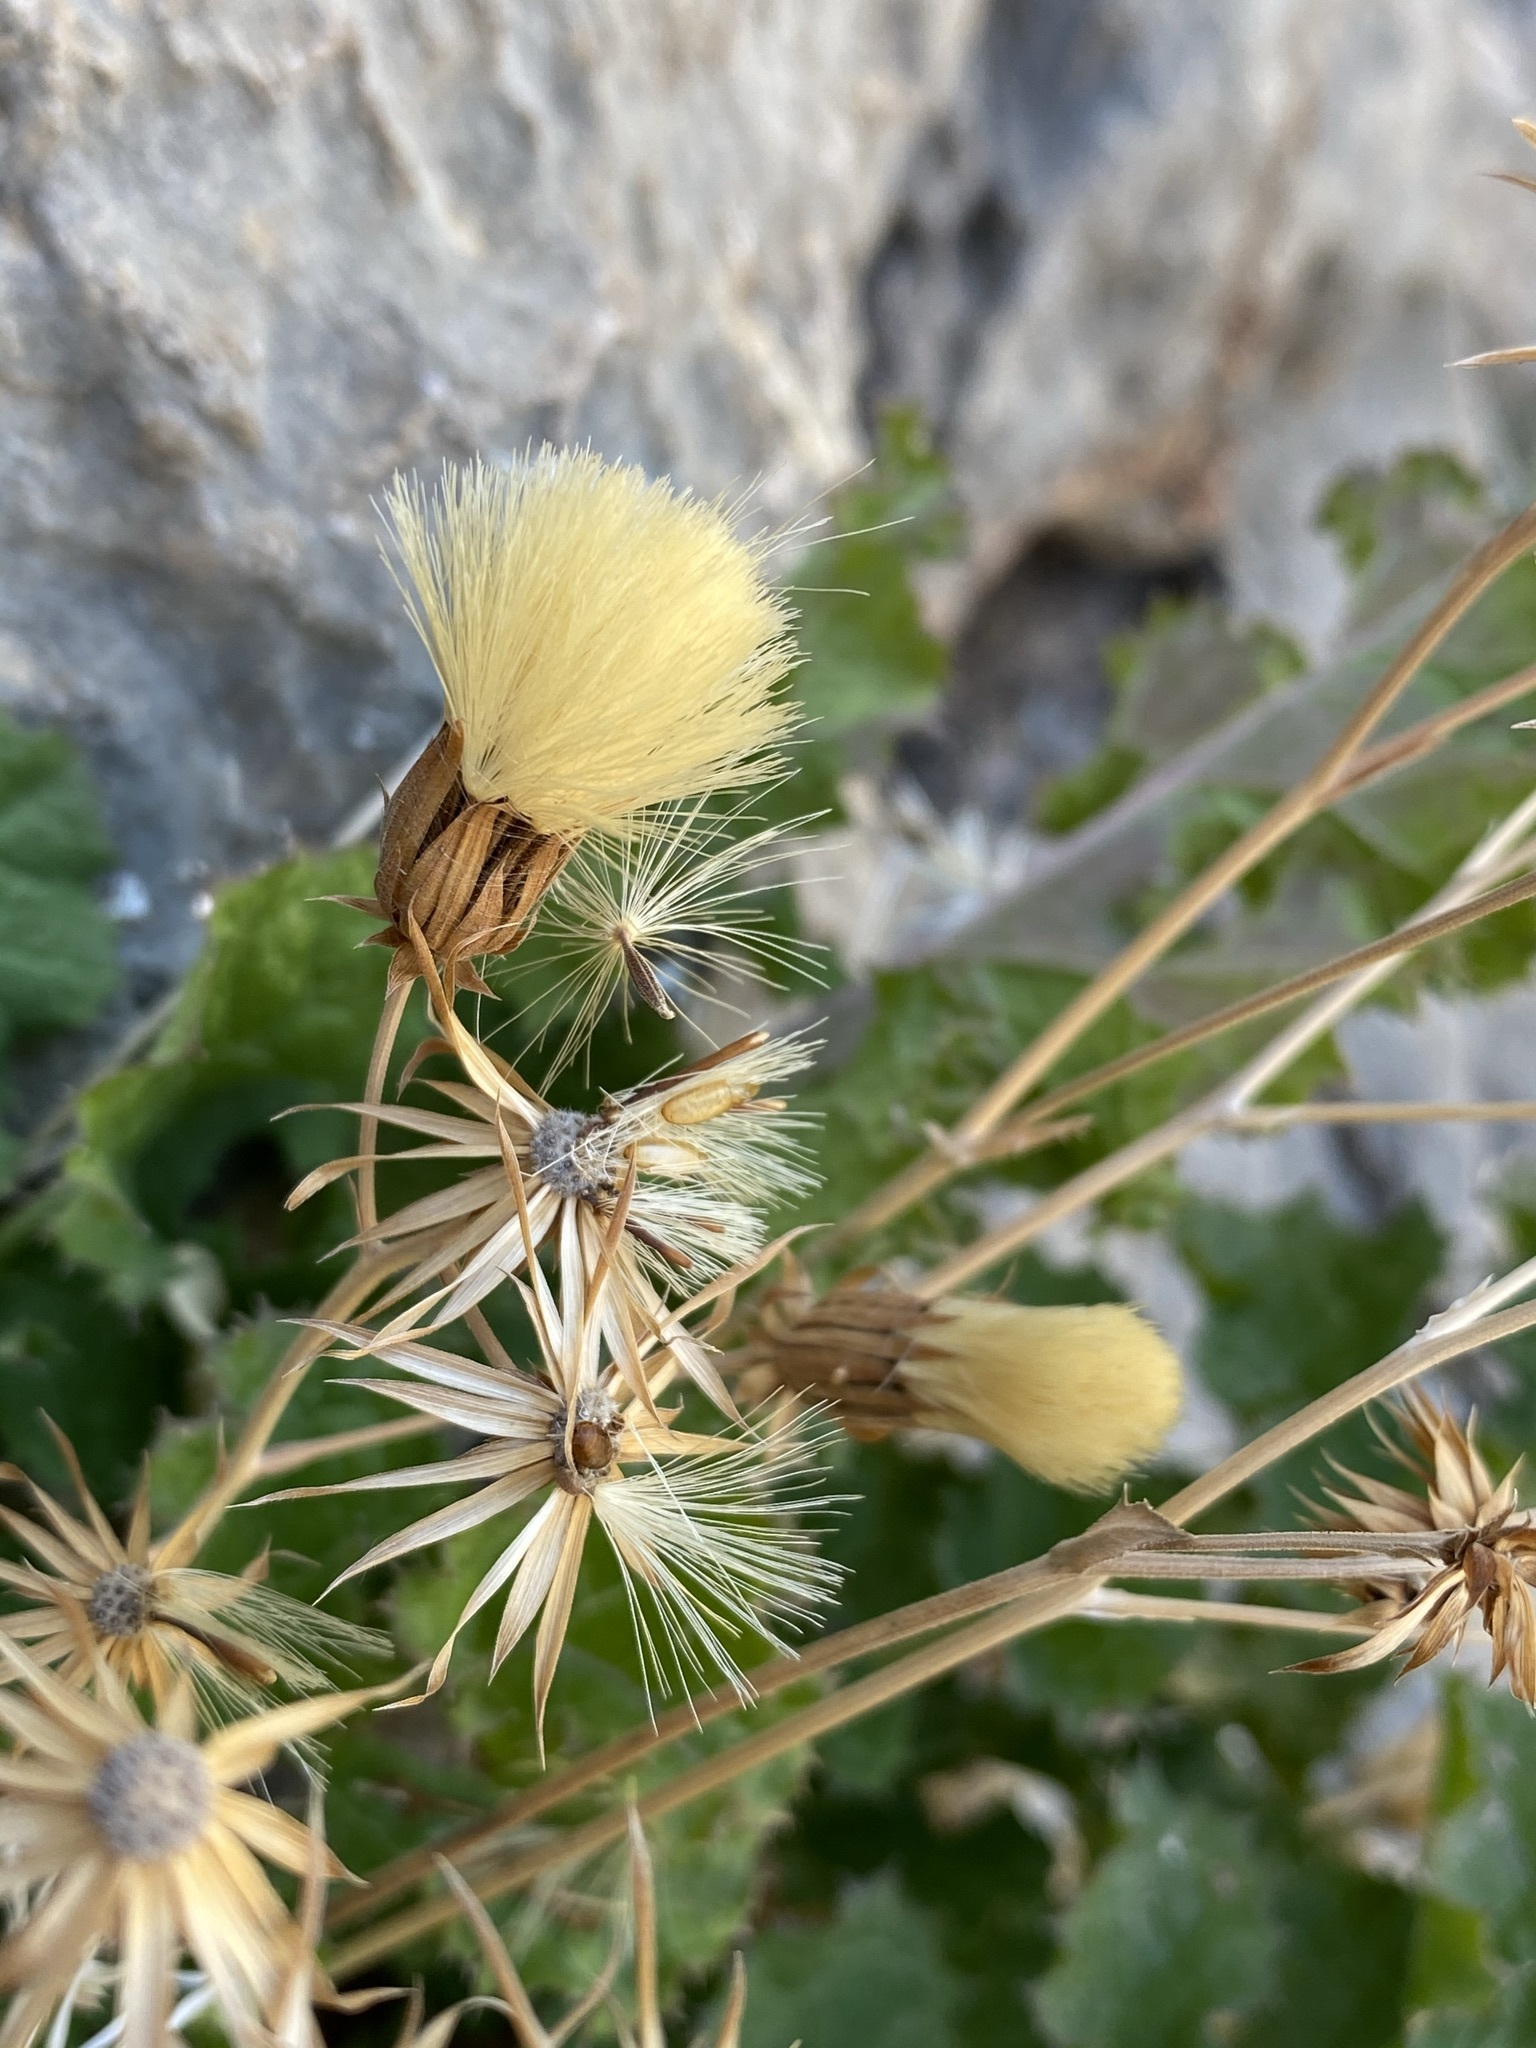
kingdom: Plantae
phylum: Tracheophyta
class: Magnoliopsida
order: Asterales
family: Asteraceae
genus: Acourtia
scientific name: Acourtia runcinata
